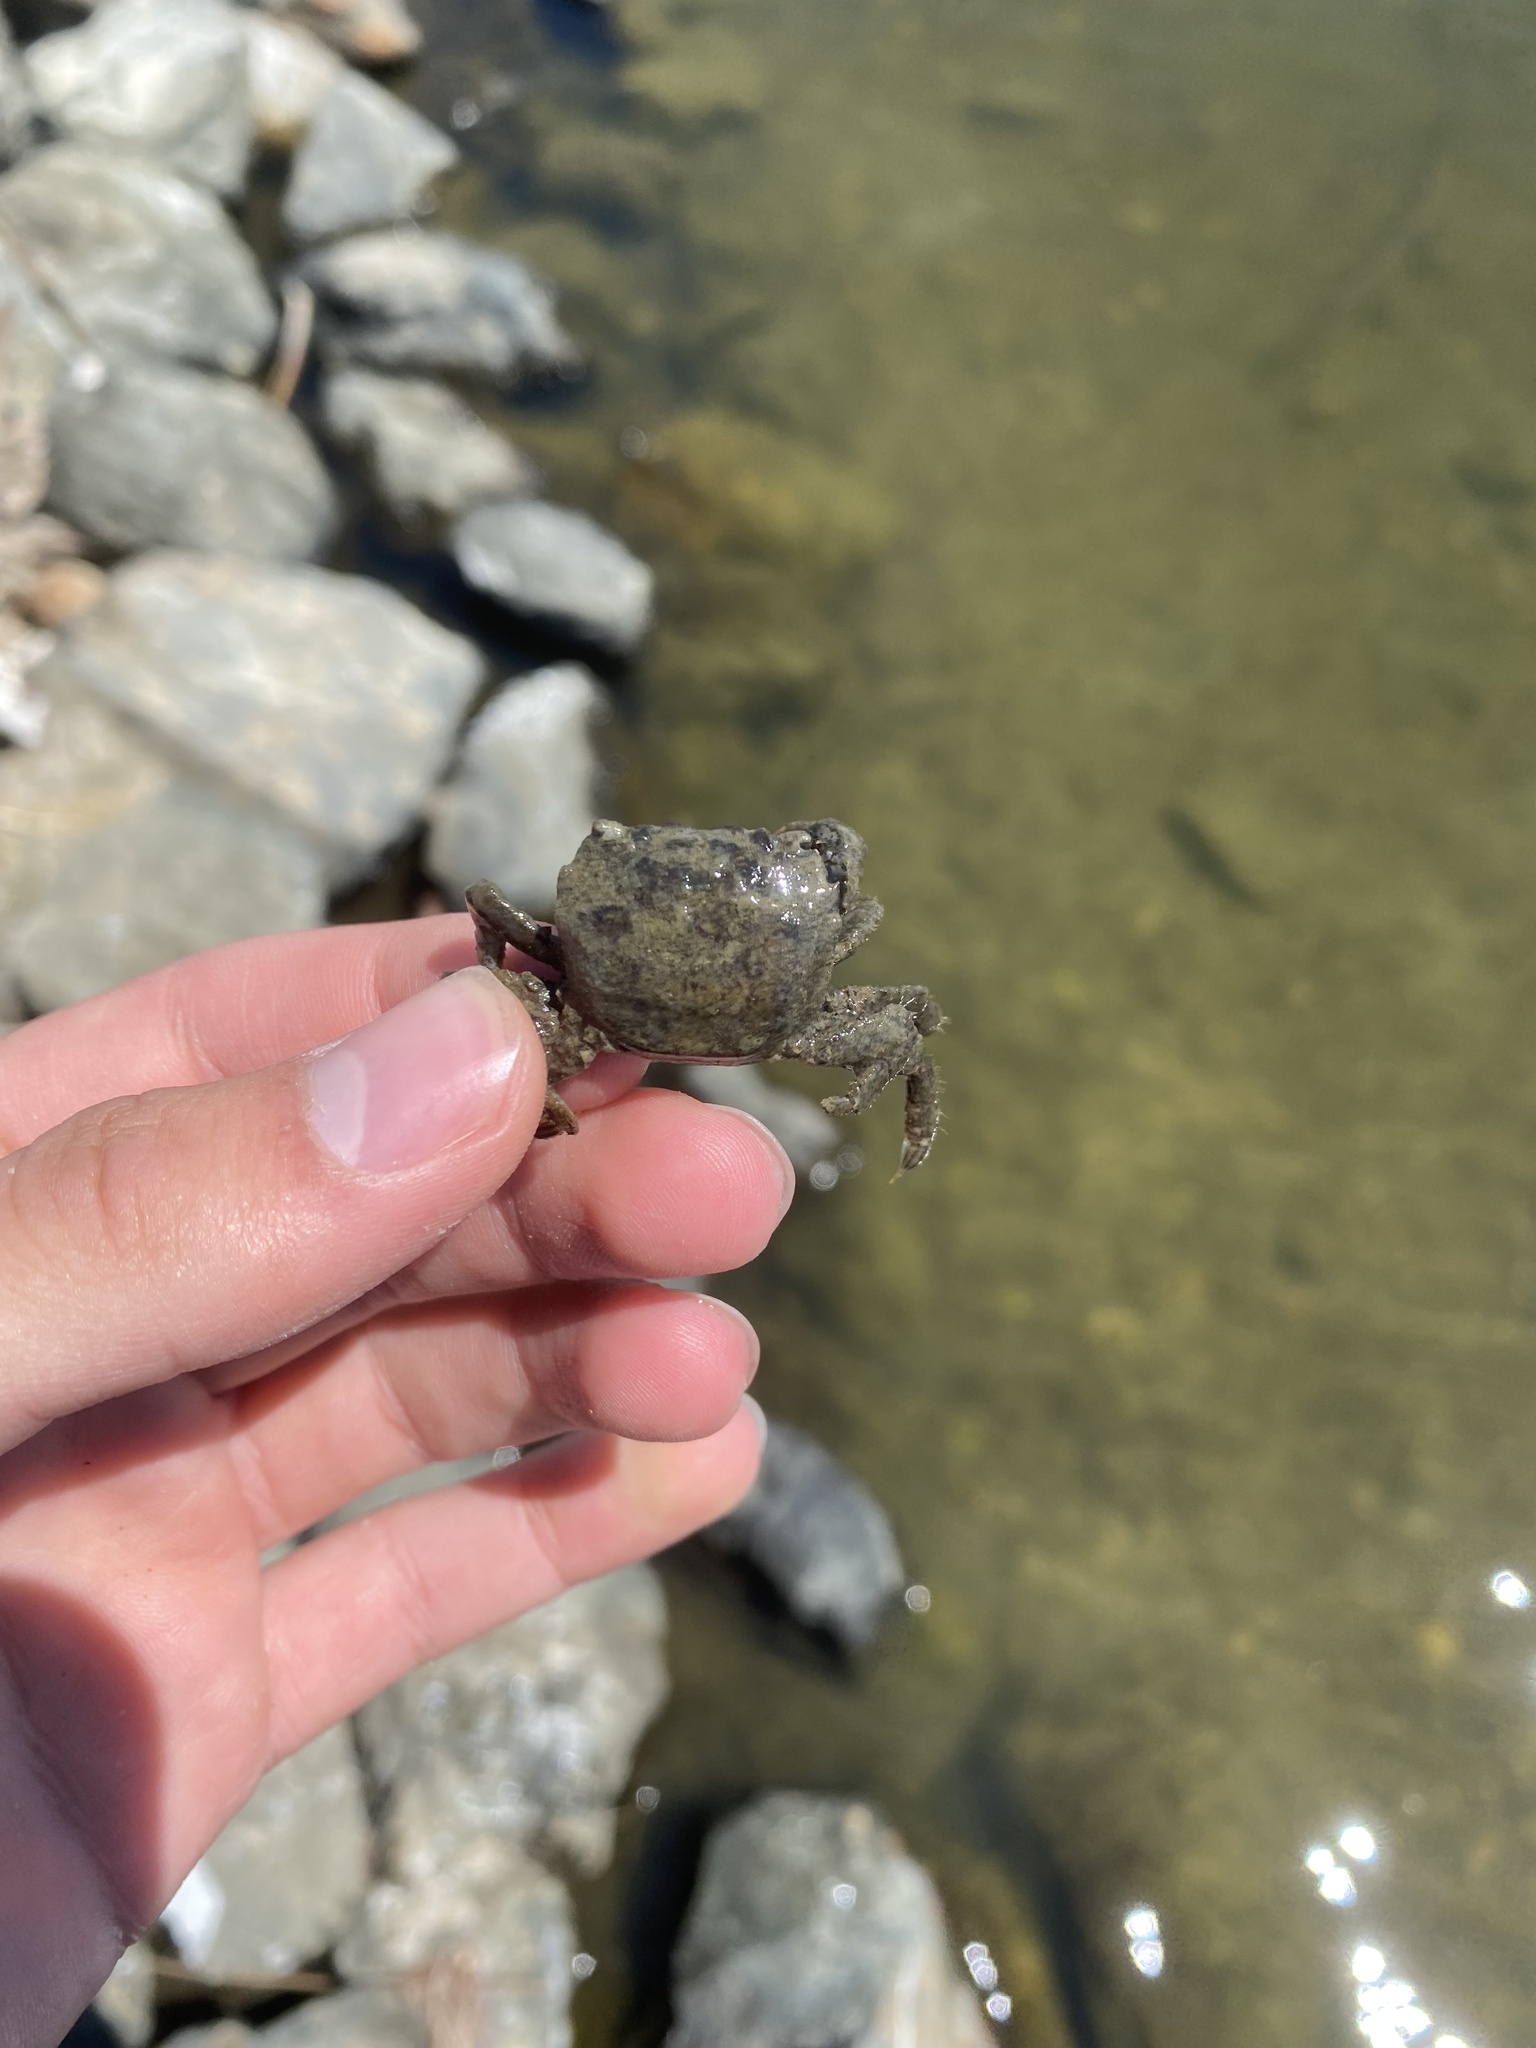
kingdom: Animalia
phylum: Arthropoda
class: Malacostraca
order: Decapoda
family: Varunidae
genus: Hemigrapsus
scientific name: Hemigrapsus oregonensis
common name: Yellow shore crab
